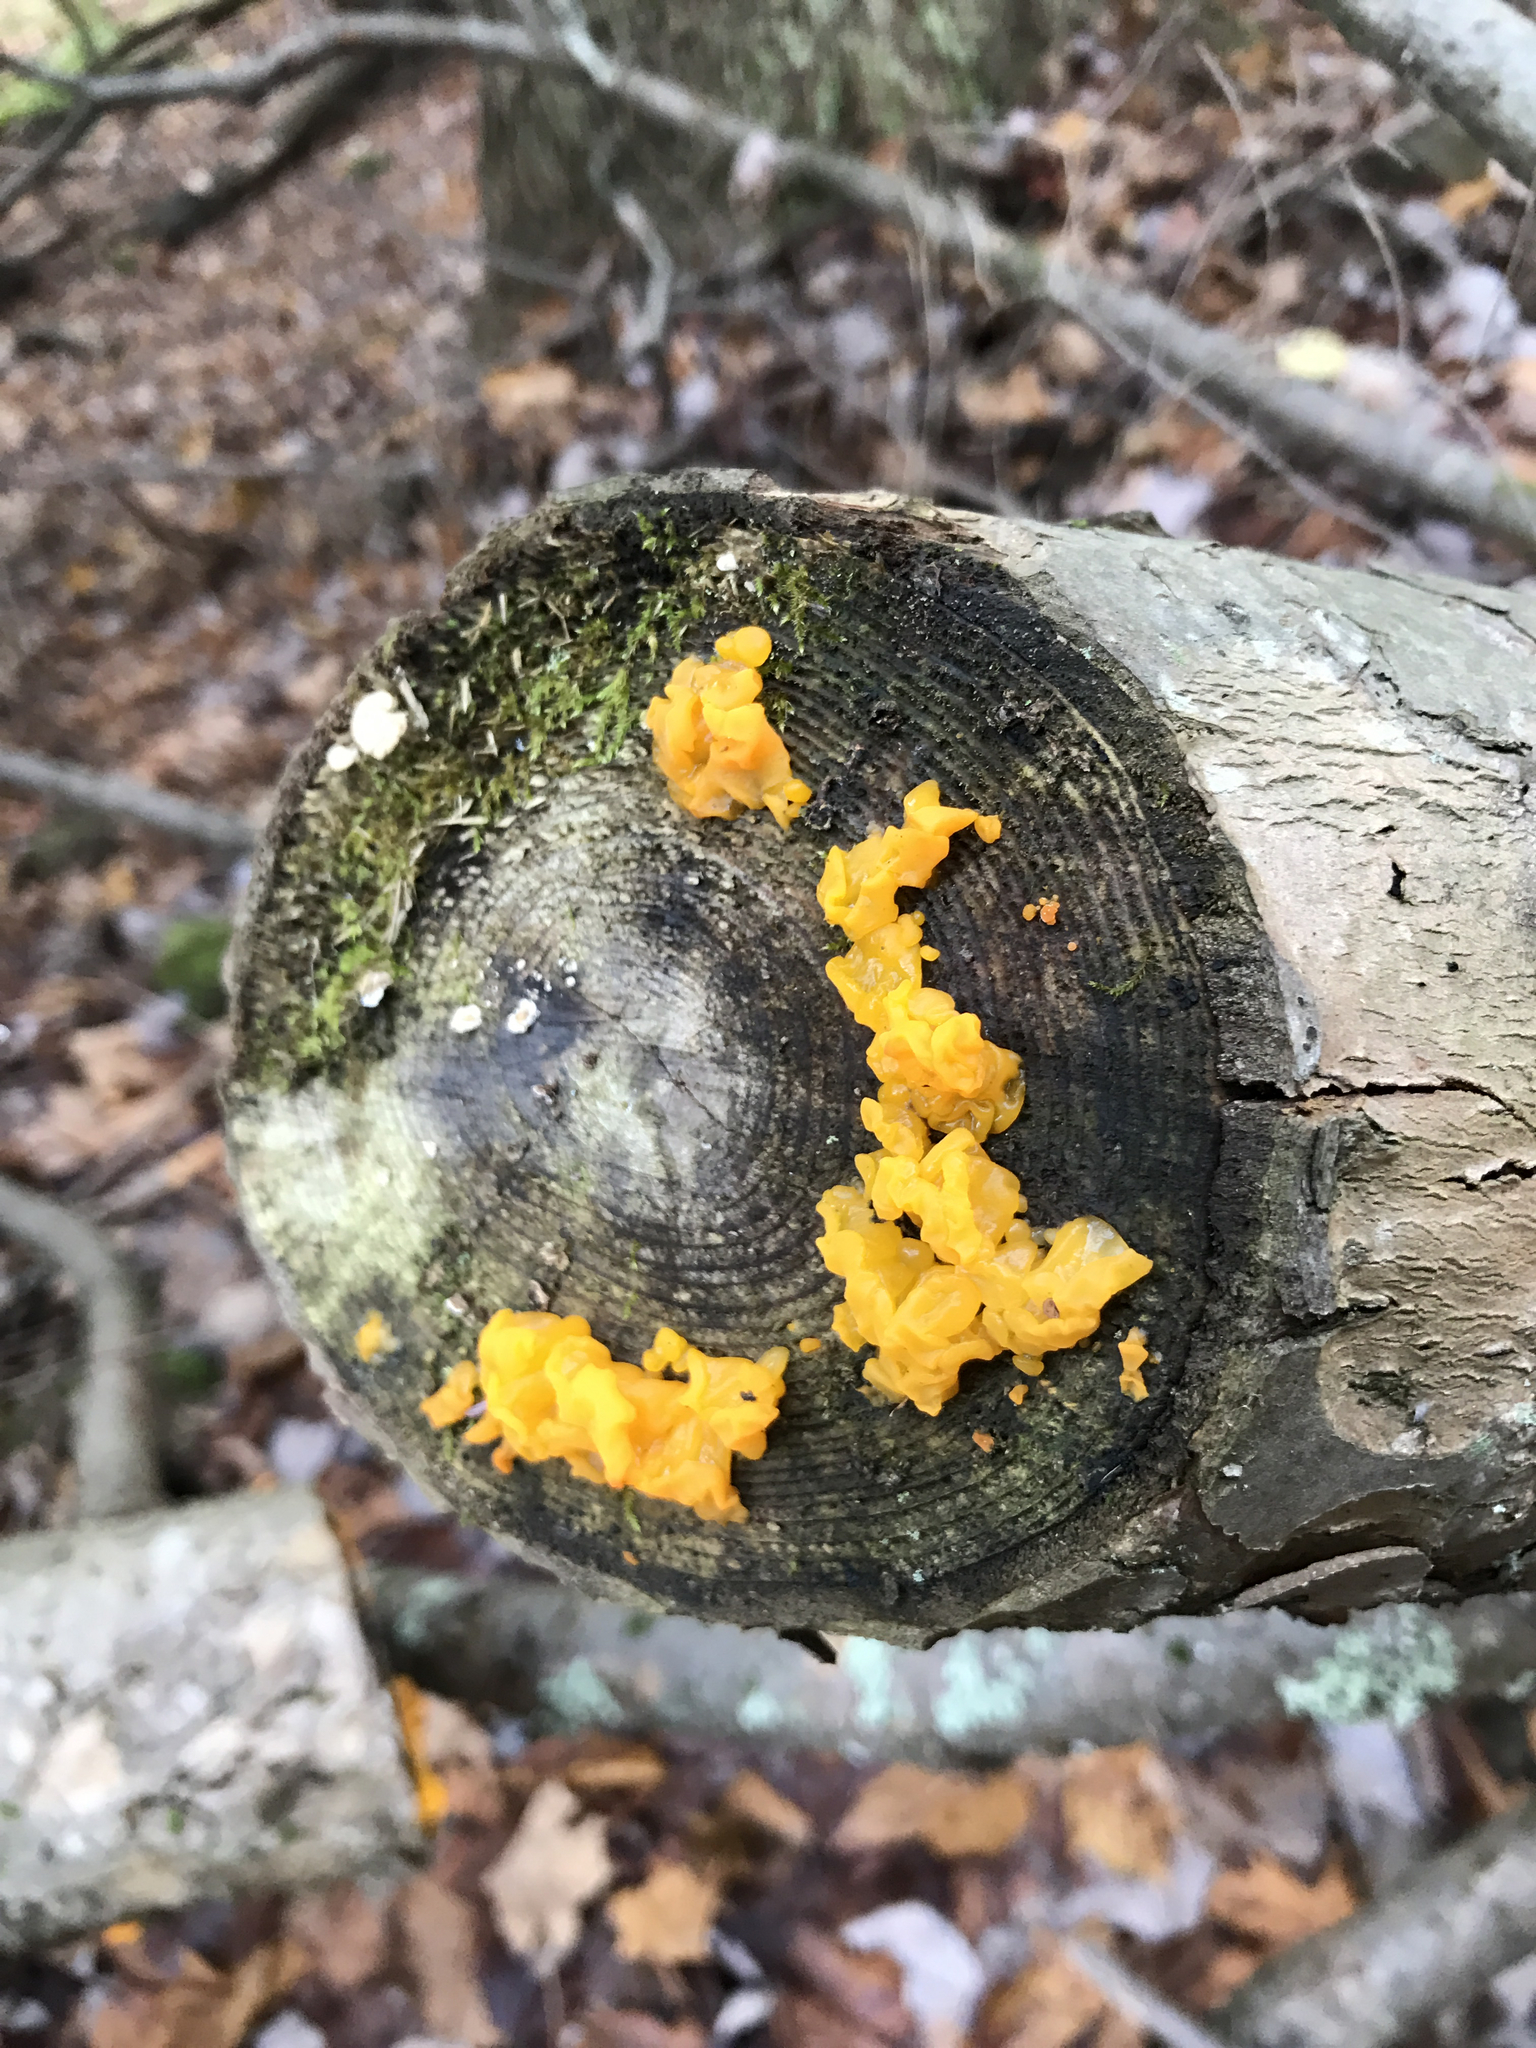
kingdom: Fungi
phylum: Basidiomycota
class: Tremellomycetes
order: Tremellales
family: Tremellaceae
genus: Tremella
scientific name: Tremella mesenterica
